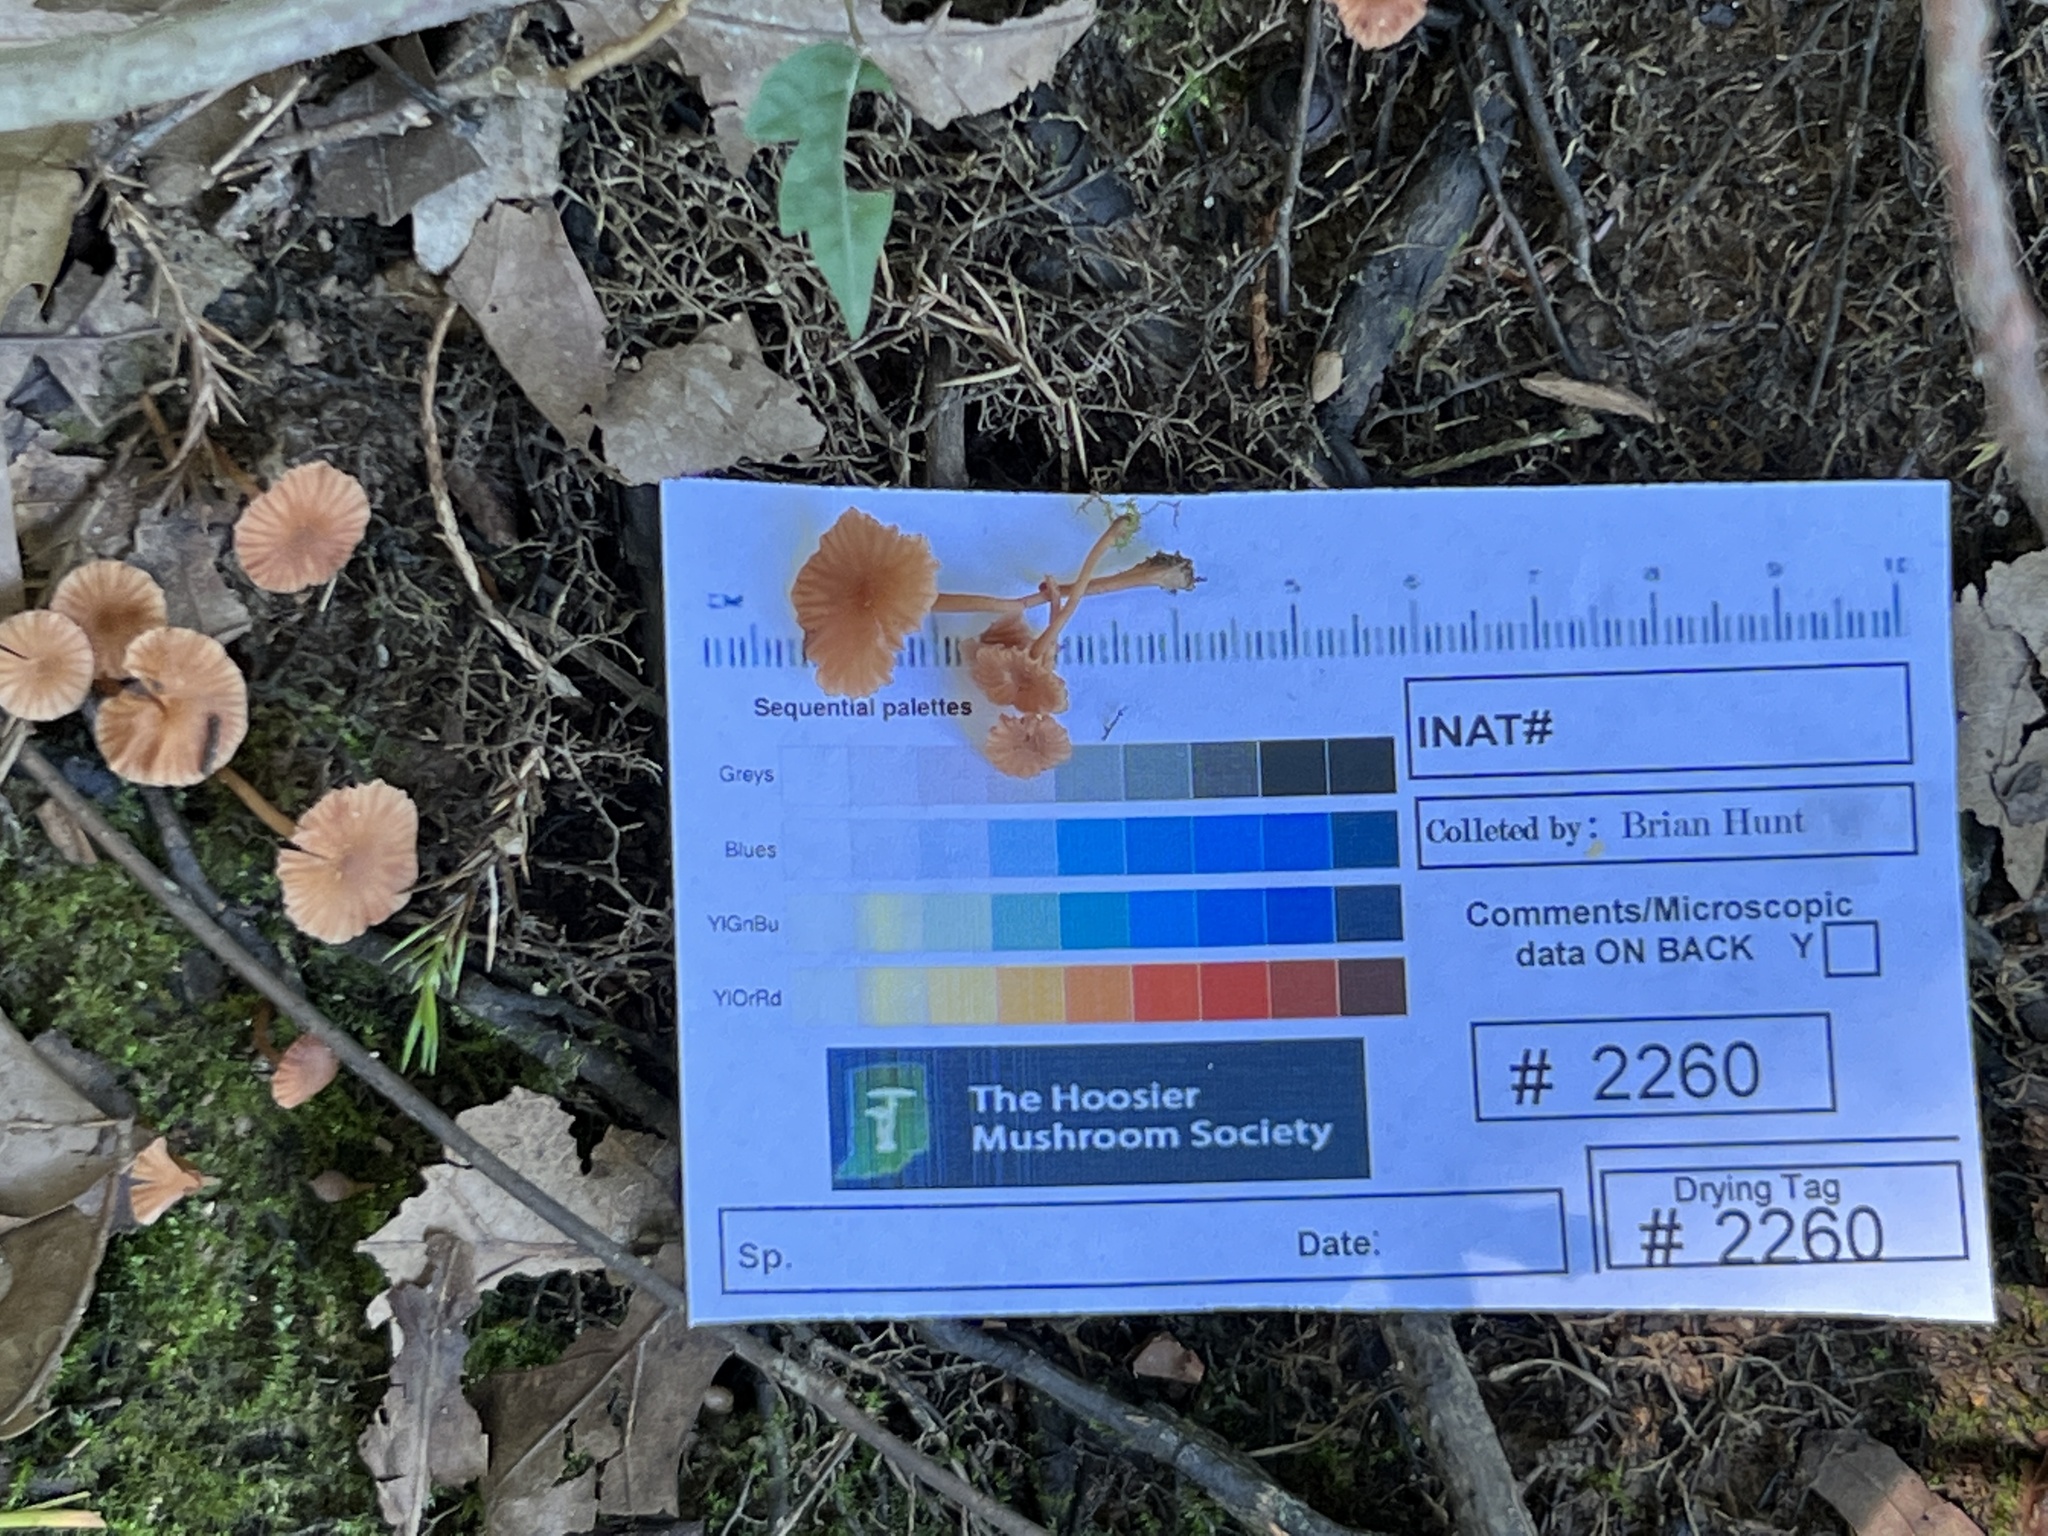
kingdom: Fungi
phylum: Basidiomycota
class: Agaricomycetes
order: Agaricales
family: Hydnangiaceae
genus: Laccaria
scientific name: Laccaria laccata
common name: Deceiver
